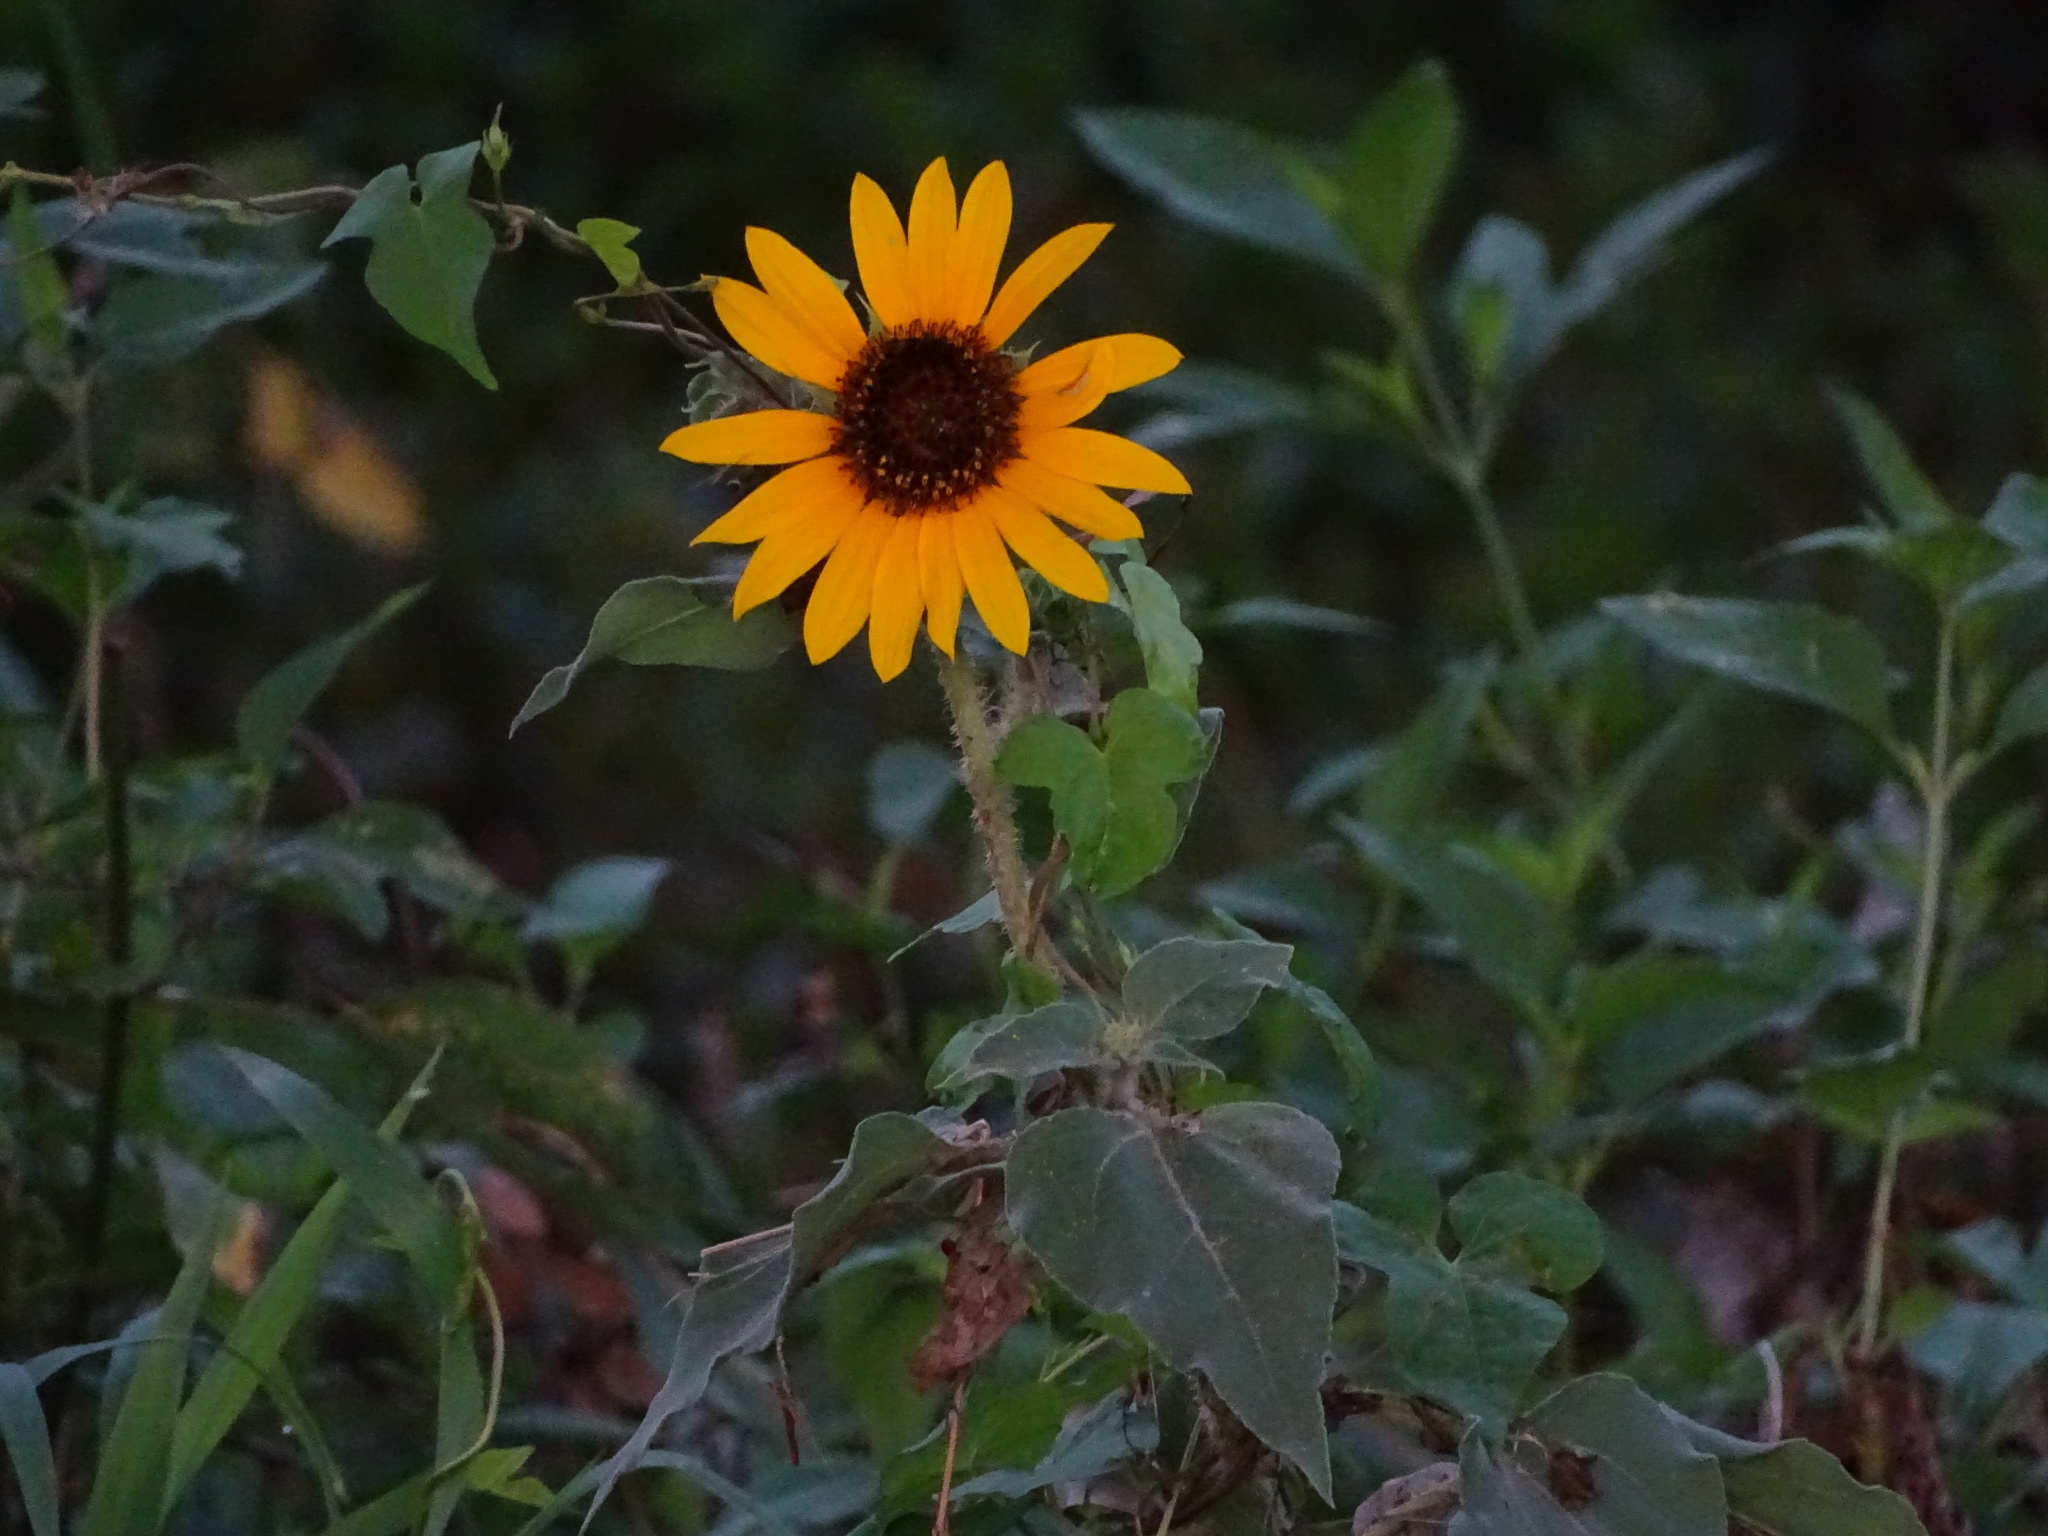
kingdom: Plantae
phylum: Tracheophyta
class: Magnoliopsida
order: Asterales
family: Asteraceae
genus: Helianthus
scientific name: Helianthus annuus
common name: Sunflower
